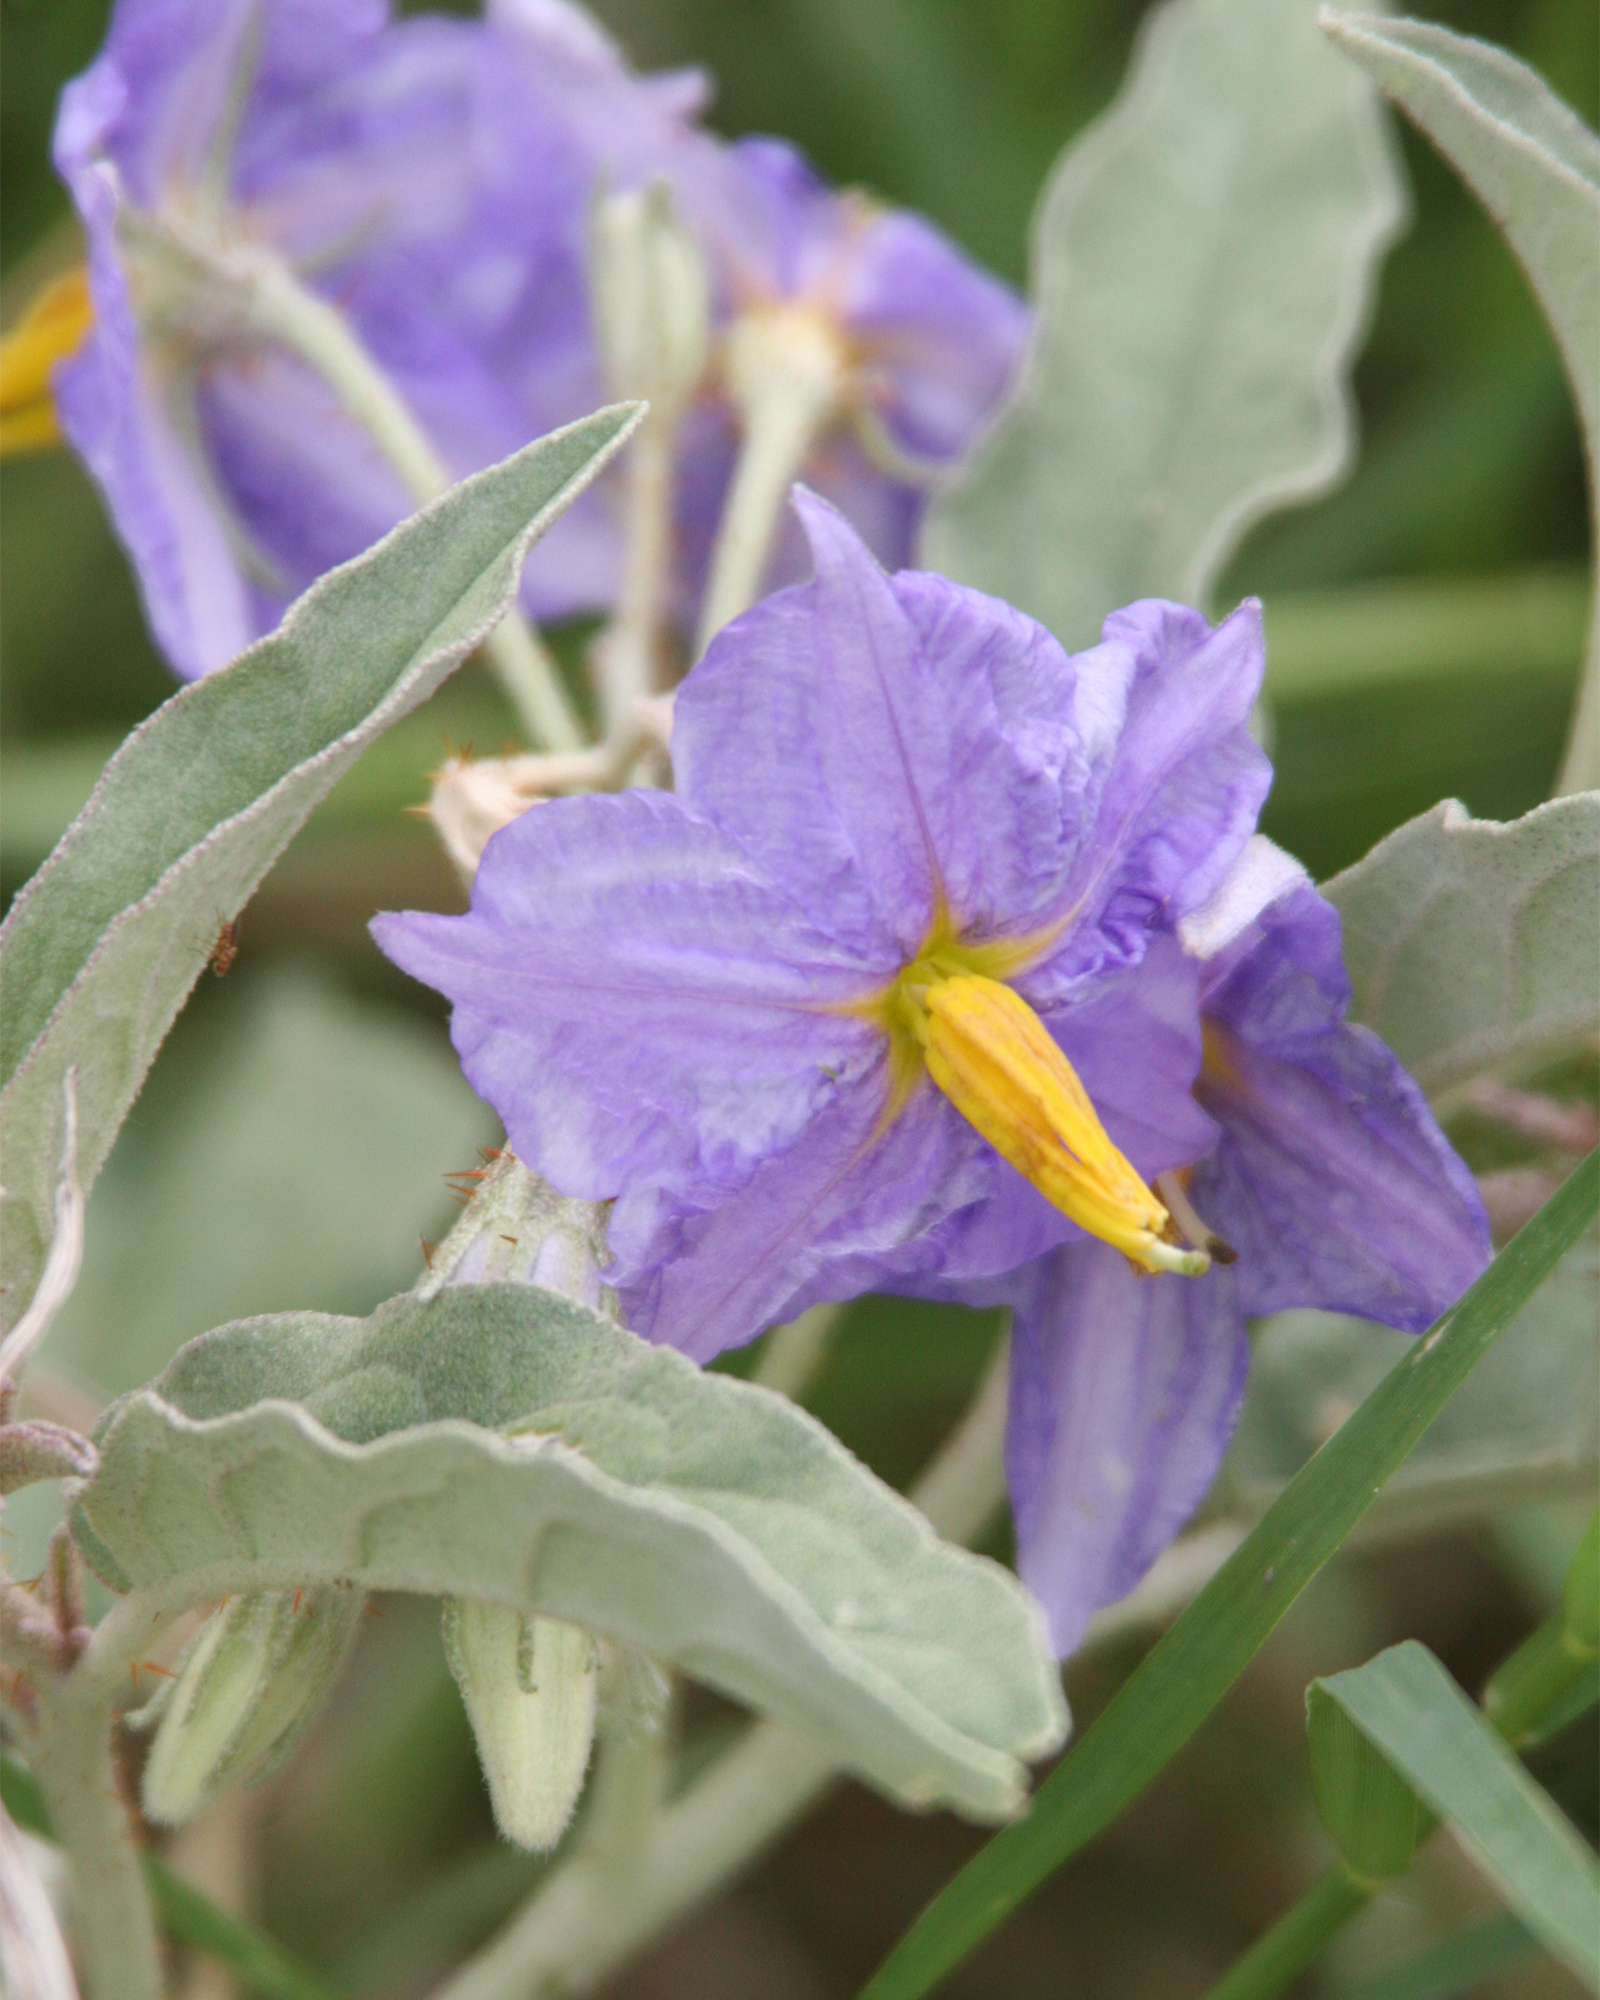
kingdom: Plantae
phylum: Tracheophyta
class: Magnoliopsida
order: Solanales
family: Solanaceae
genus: Solanum
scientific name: Solanum elaeagnifolium
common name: Silverleaf nightshade
